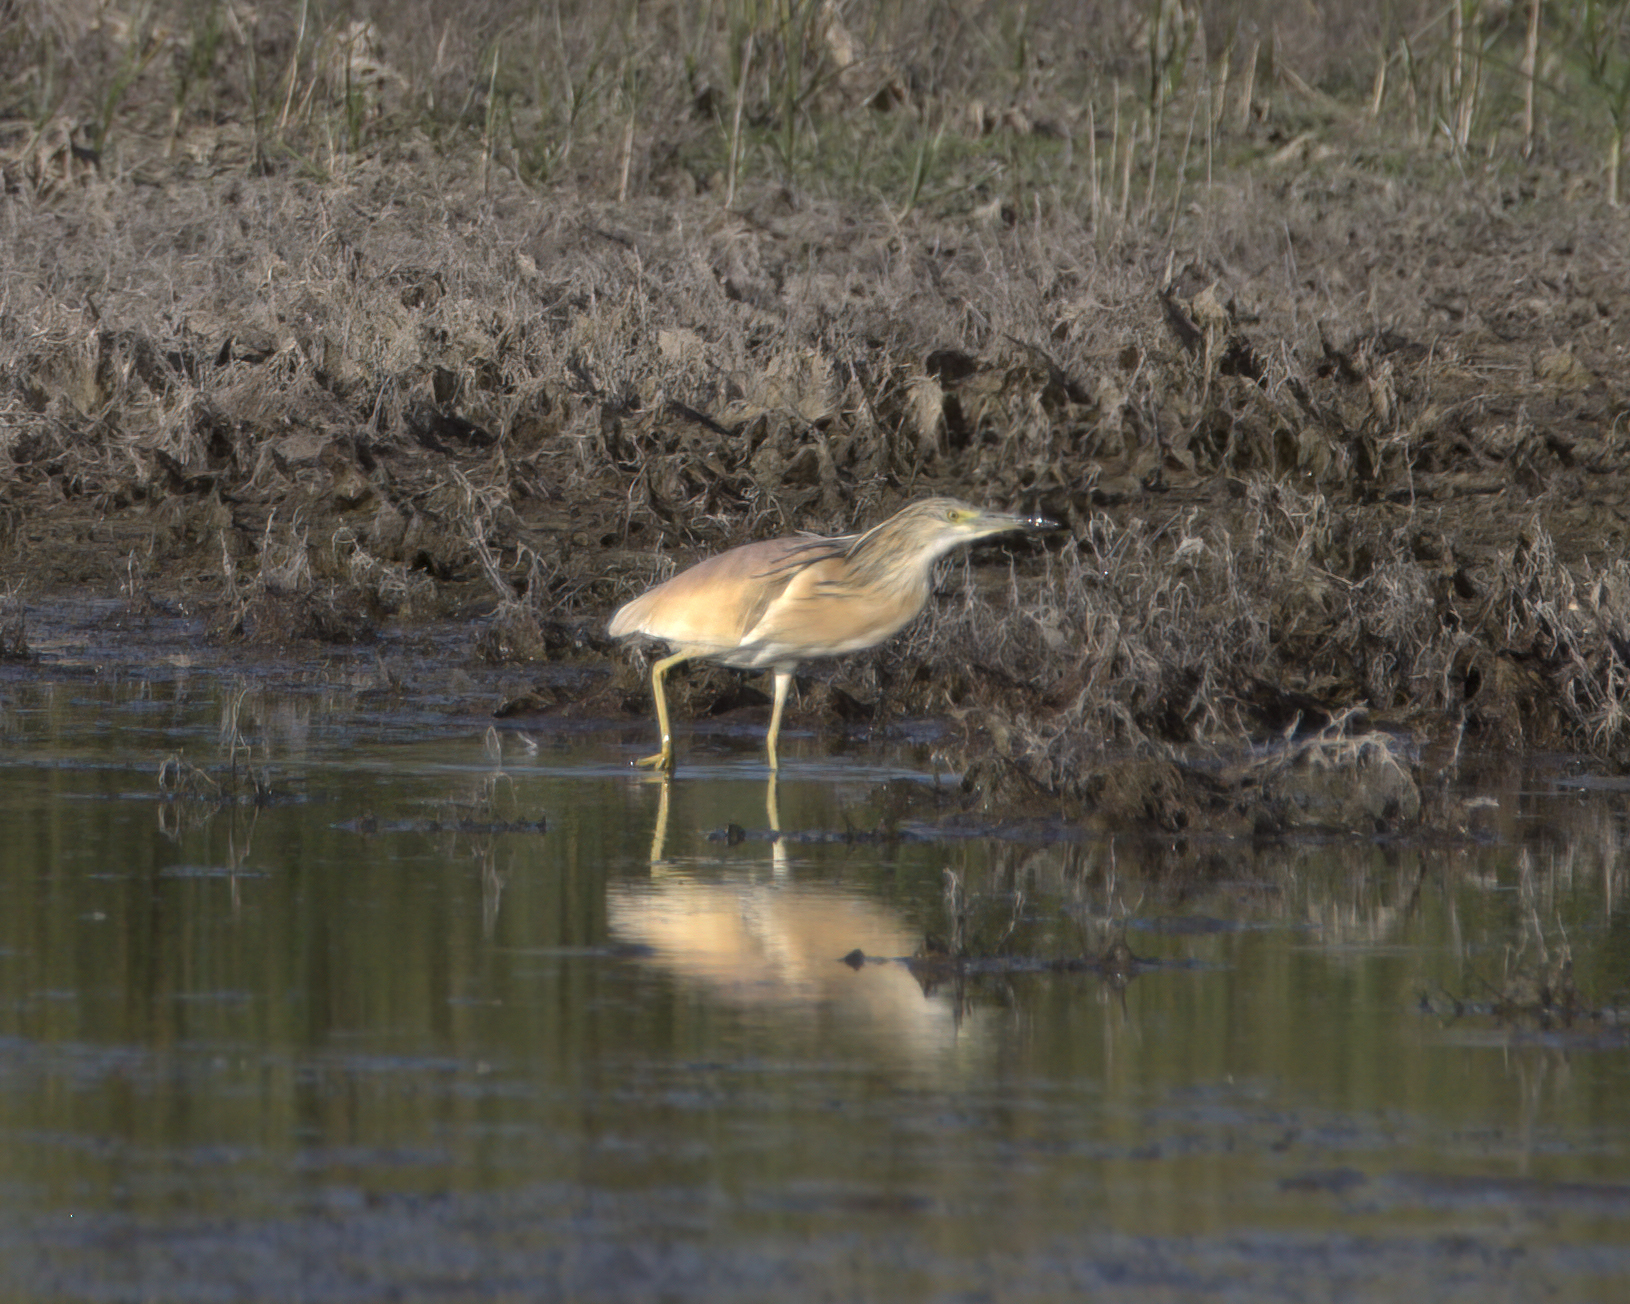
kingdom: Animalia
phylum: Chordata
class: Aves
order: Pelecaniformes
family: Ardeidae
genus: Ardeola
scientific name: Ardeola ralloides
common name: Squacco heron
